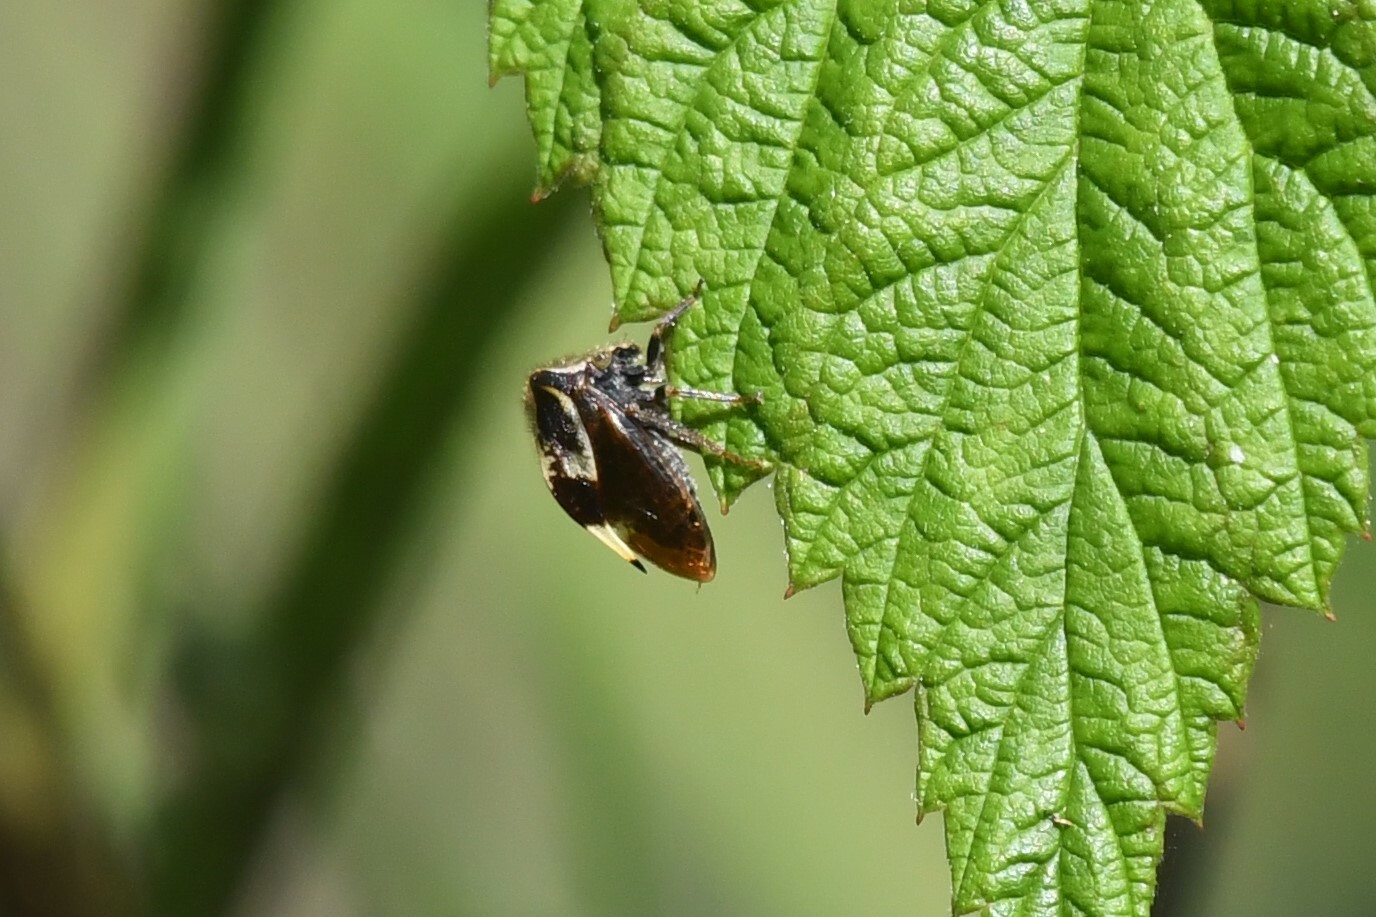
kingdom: Animalia
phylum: Arthropoda
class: Insecta
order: Hemiptera
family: Membracidae
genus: Stictocephala
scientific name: Stictocephala diceros
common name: Two-horned treehopper
